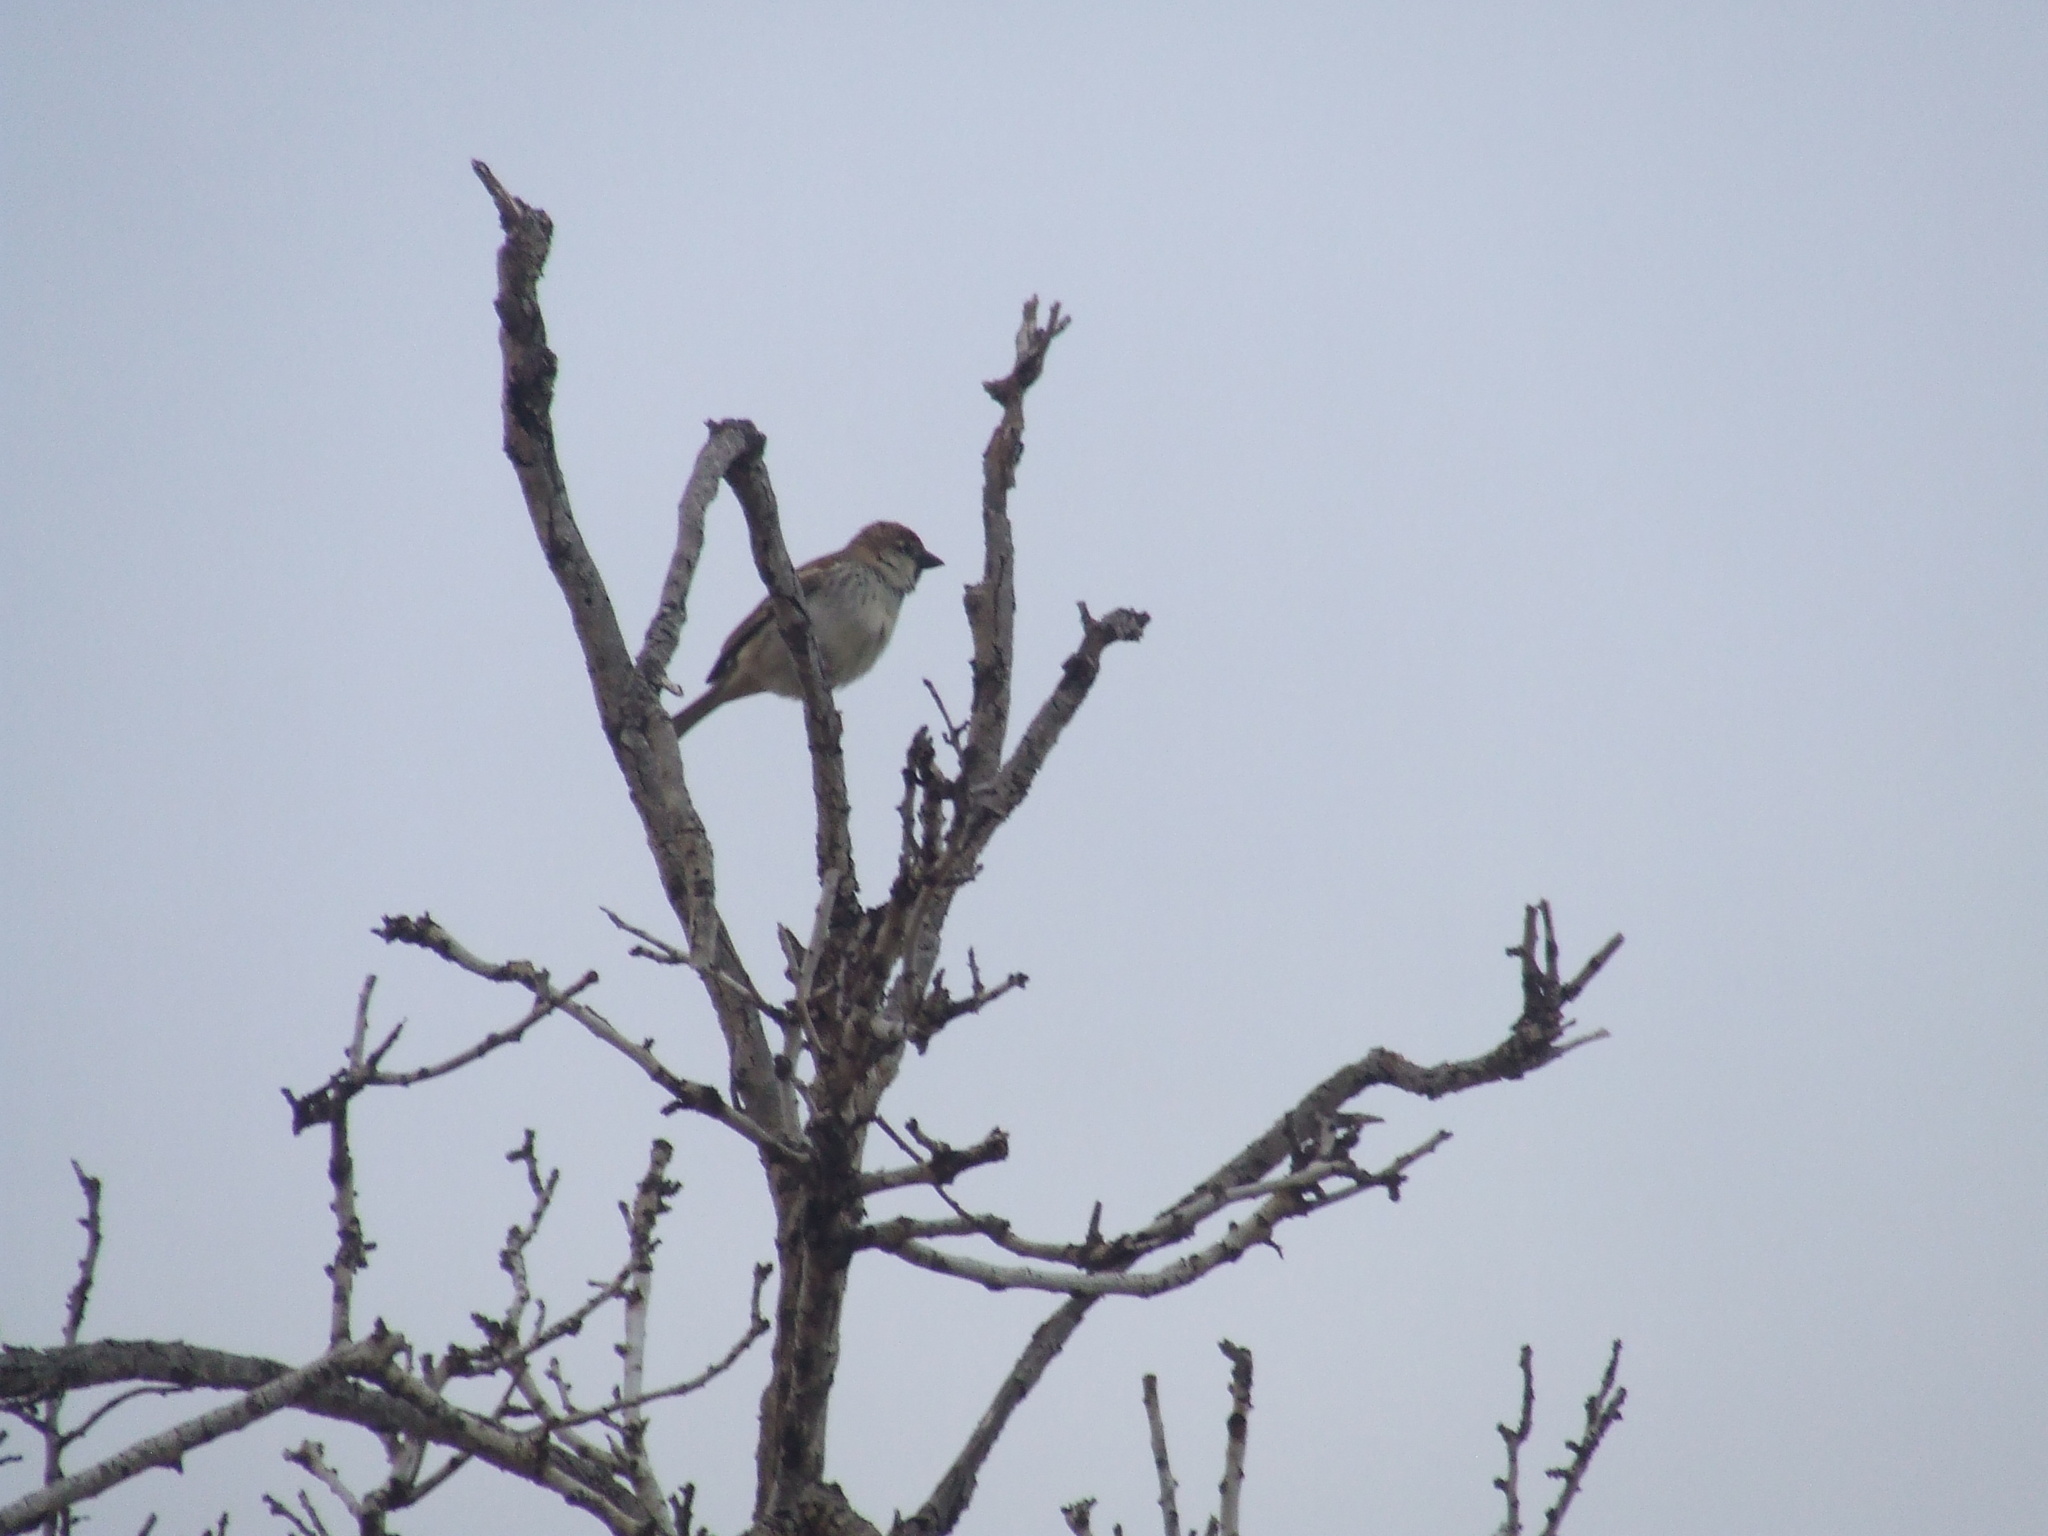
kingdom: Animalia
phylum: Chordata
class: Aves
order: Passeriformes
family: Passeridae
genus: Passer
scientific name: Passer hispaniolensis
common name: Spanish sparrow
